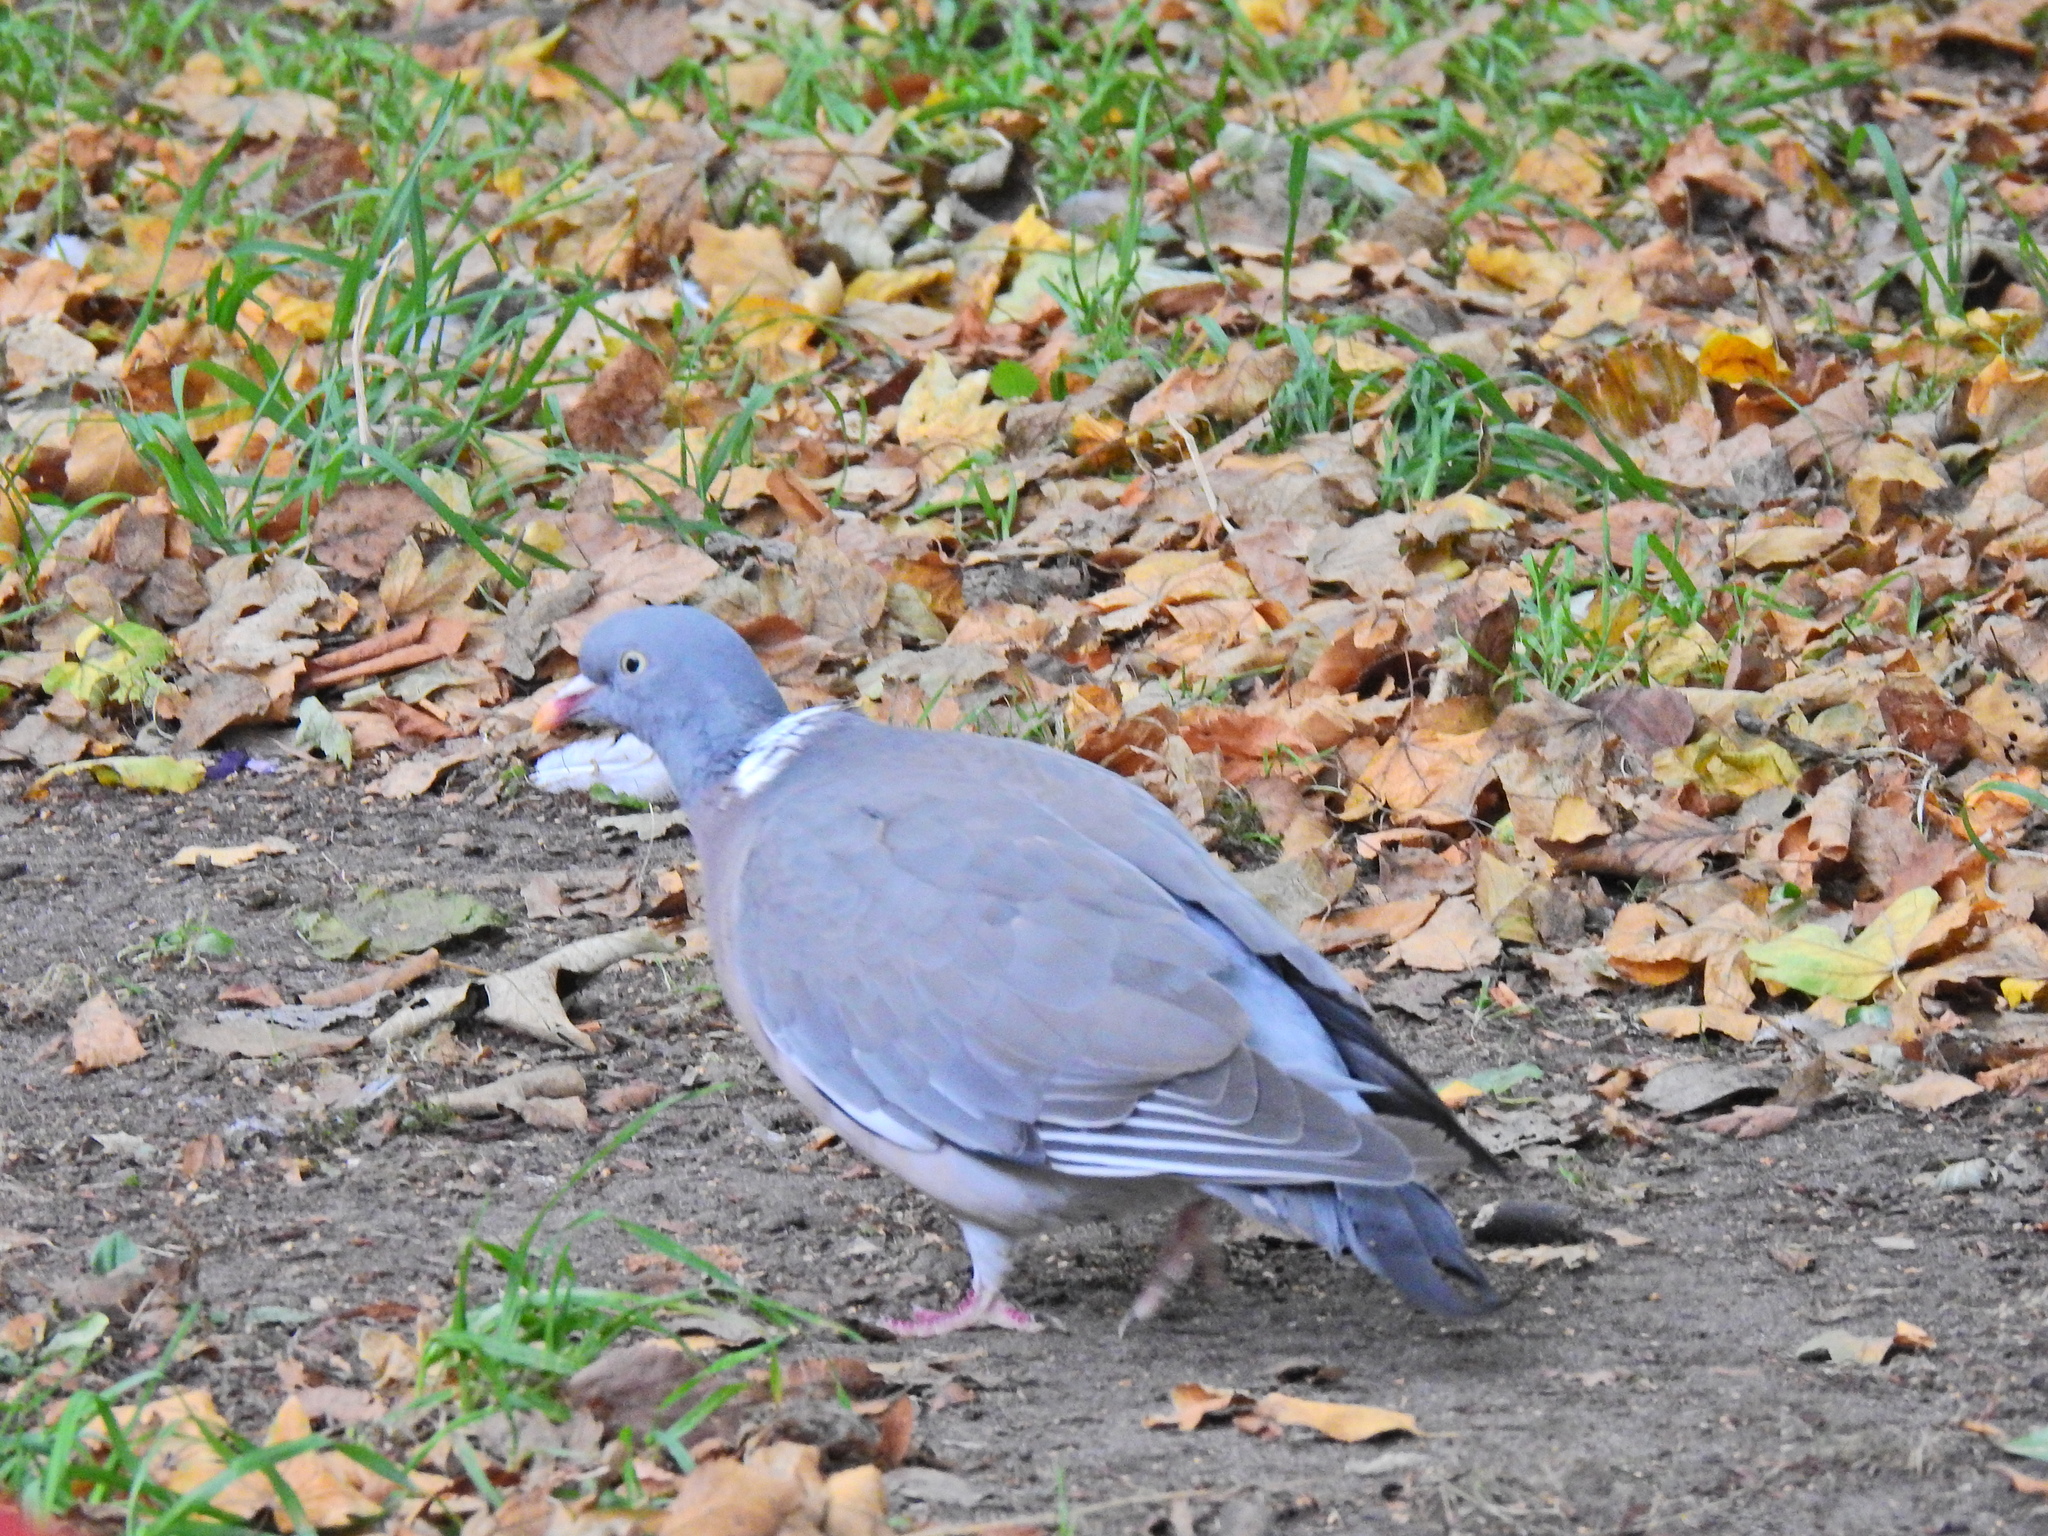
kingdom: Animalia
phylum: Chordata
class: Aves
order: Columbiformes
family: Columbidae
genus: Columba
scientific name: Columba palumbus
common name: Common wood pigeon
